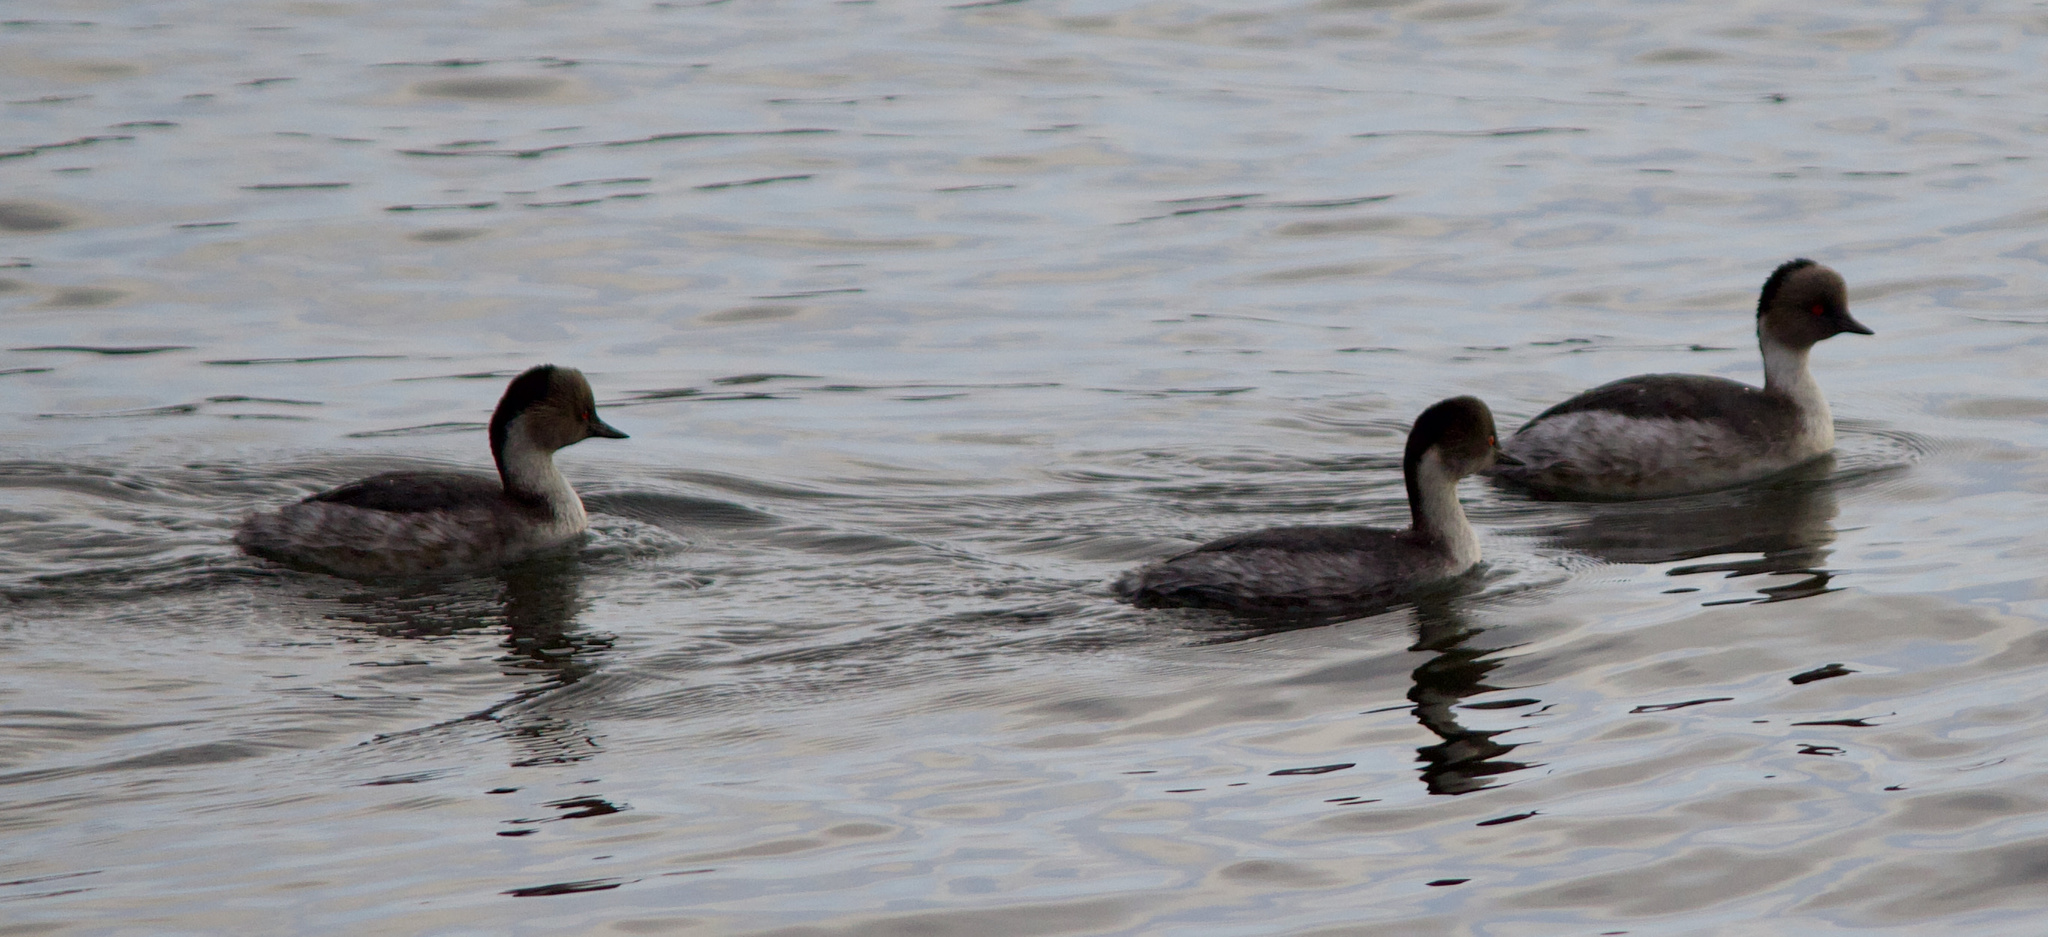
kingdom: Animalia
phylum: Chordata
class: Aves
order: Podicipediformes
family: Podicipedidae
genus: Podiceps
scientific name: Podiceps occipitalis
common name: Silvery grebe
